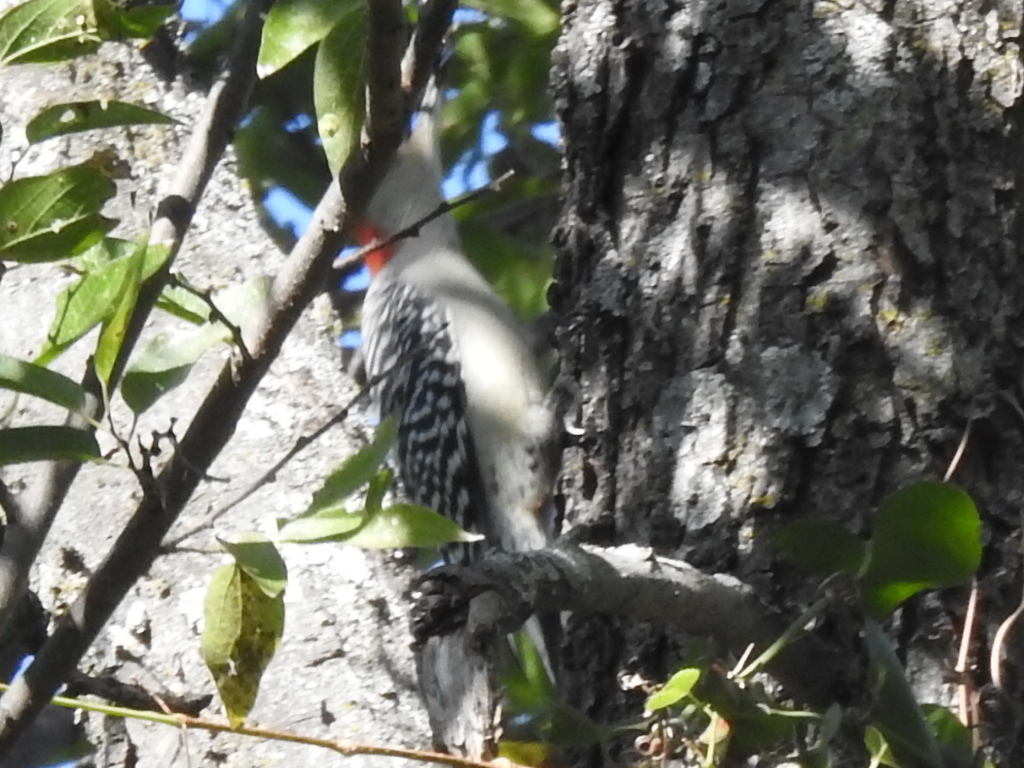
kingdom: Animalia
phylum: Chordata
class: Aves
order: Piciformes
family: Picidae
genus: Melanerpes
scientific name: Melanerpes carolinus
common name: Red-bellied woodpecker
